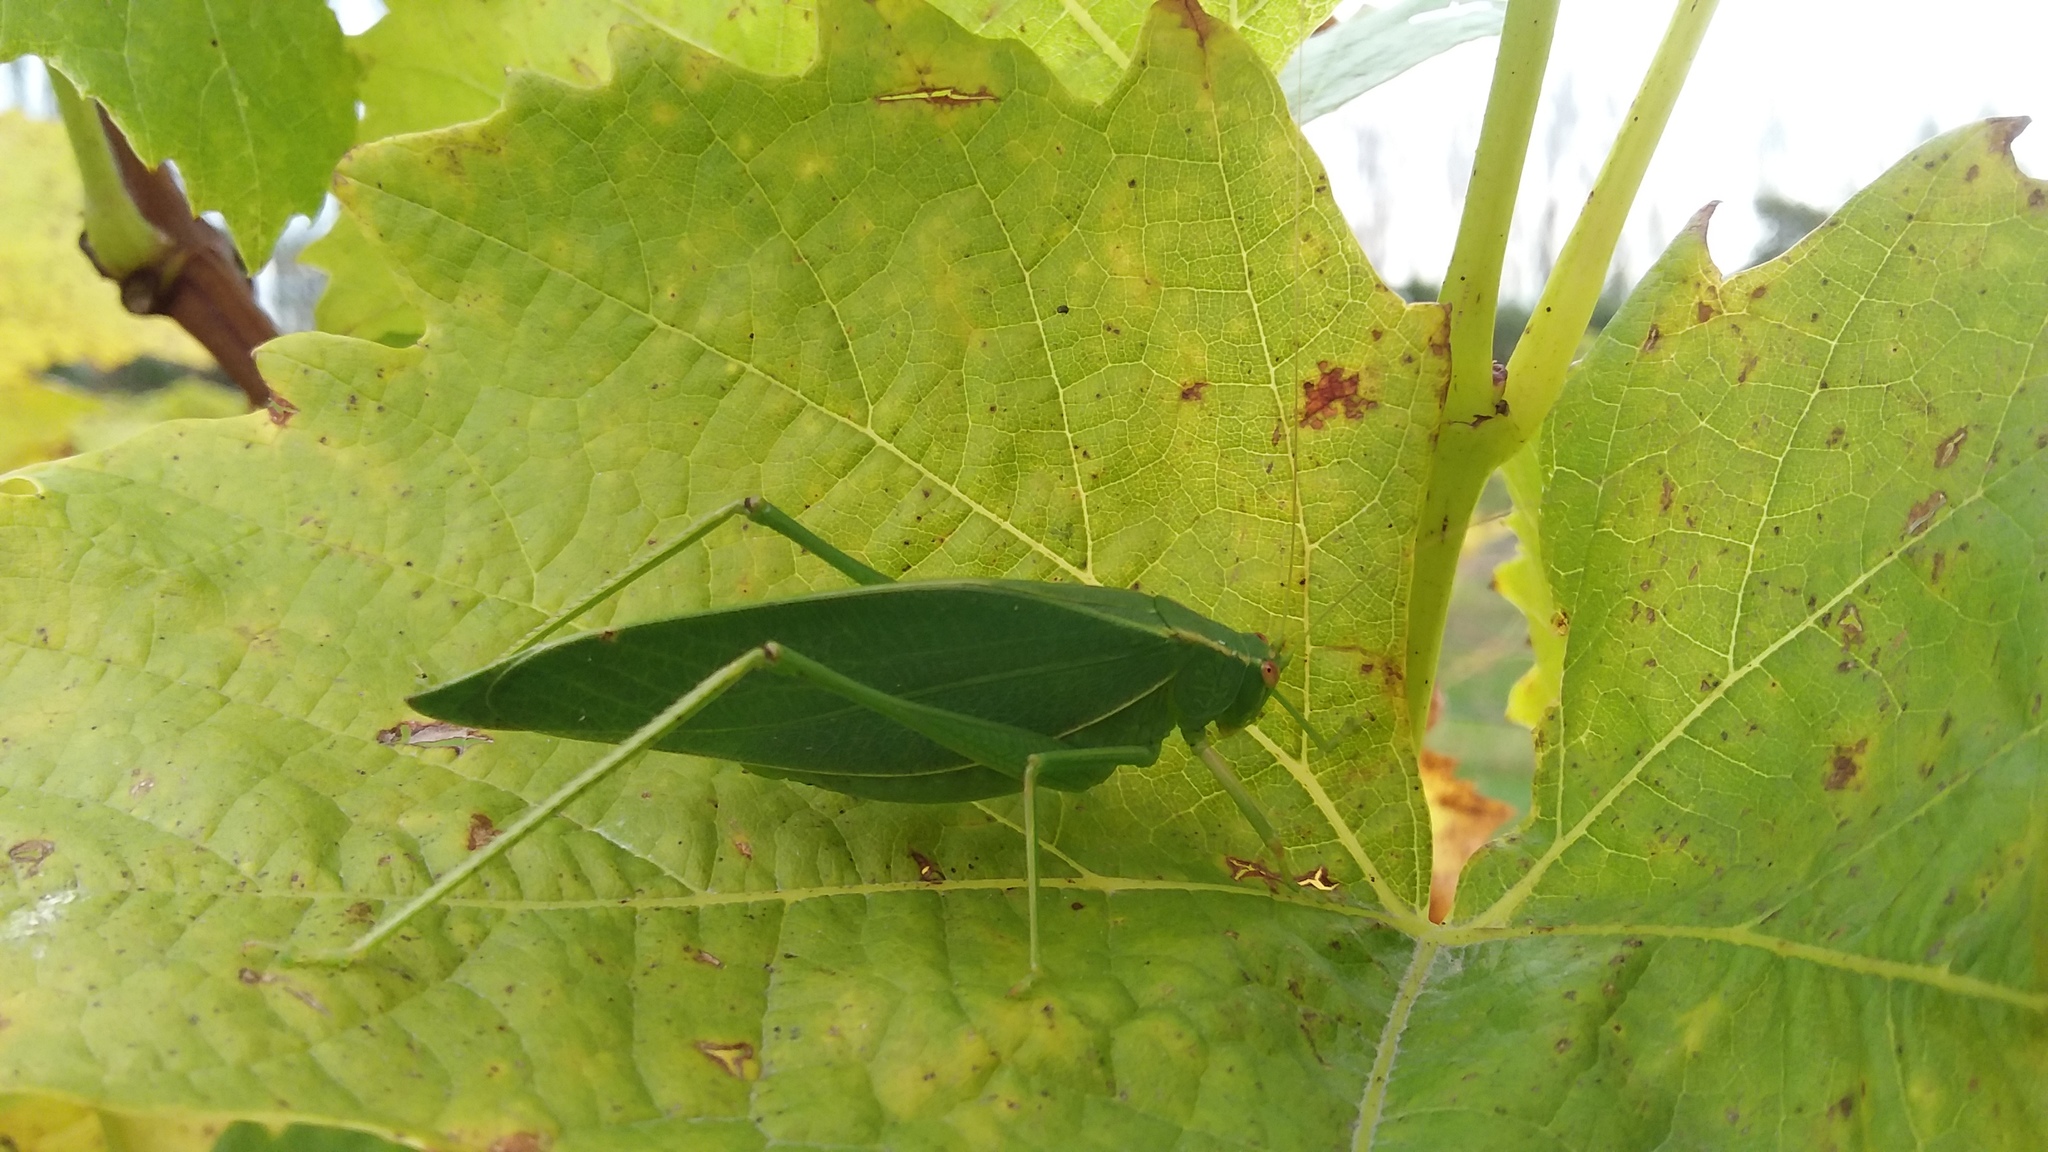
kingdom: Animalia
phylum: Arthropoda
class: Insecta
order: Orthoptera
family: Tettigoniidae
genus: Caedicia
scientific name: Caedicia simplex
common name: Common garden katydid
